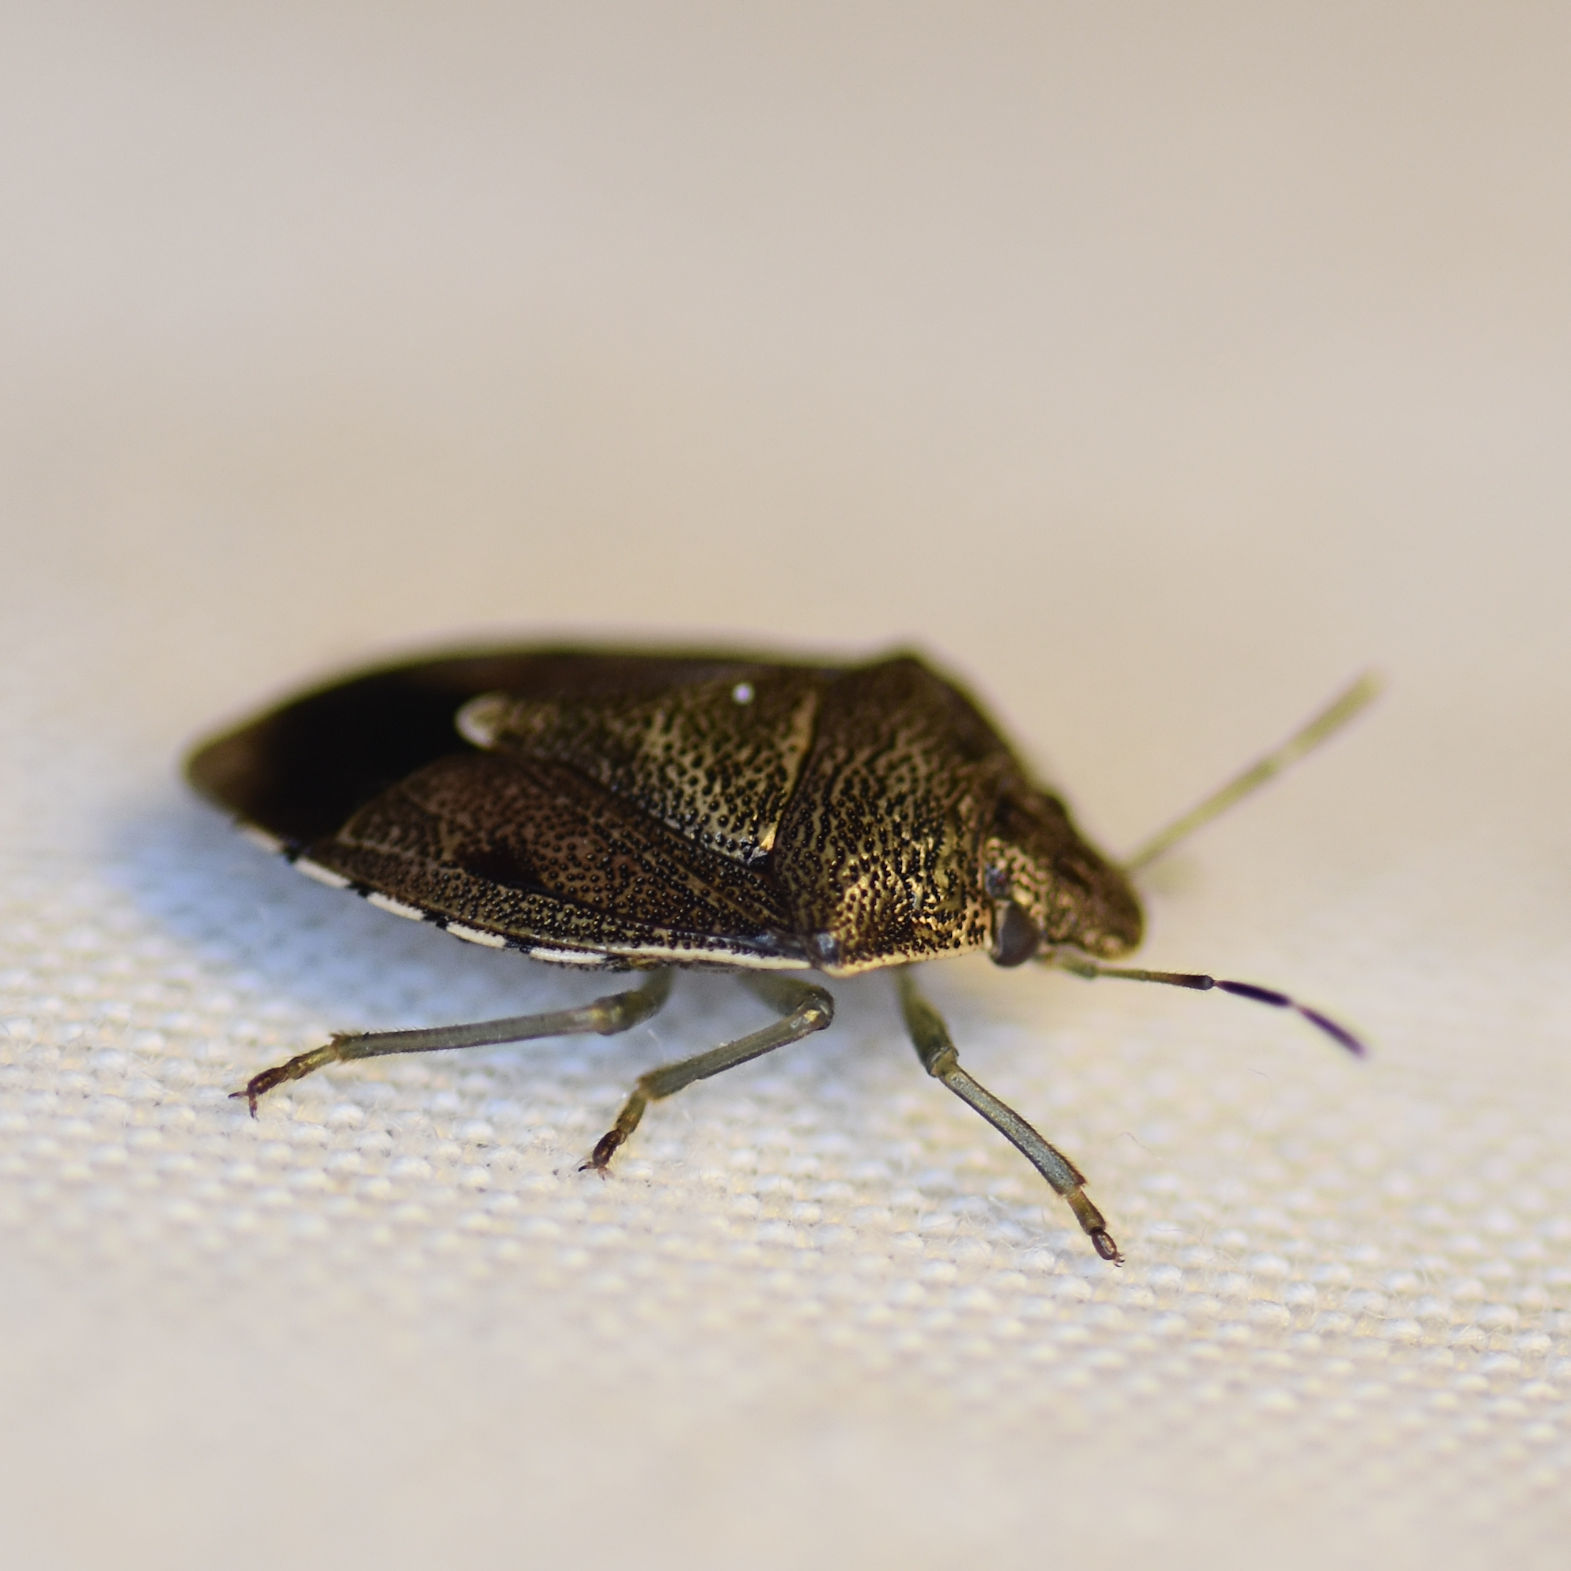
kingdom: Animalia
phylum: Arthropoda
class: Insecta
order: Hemiptera
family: Pentatomidae
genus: Banasa
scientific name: Banasa sordida
